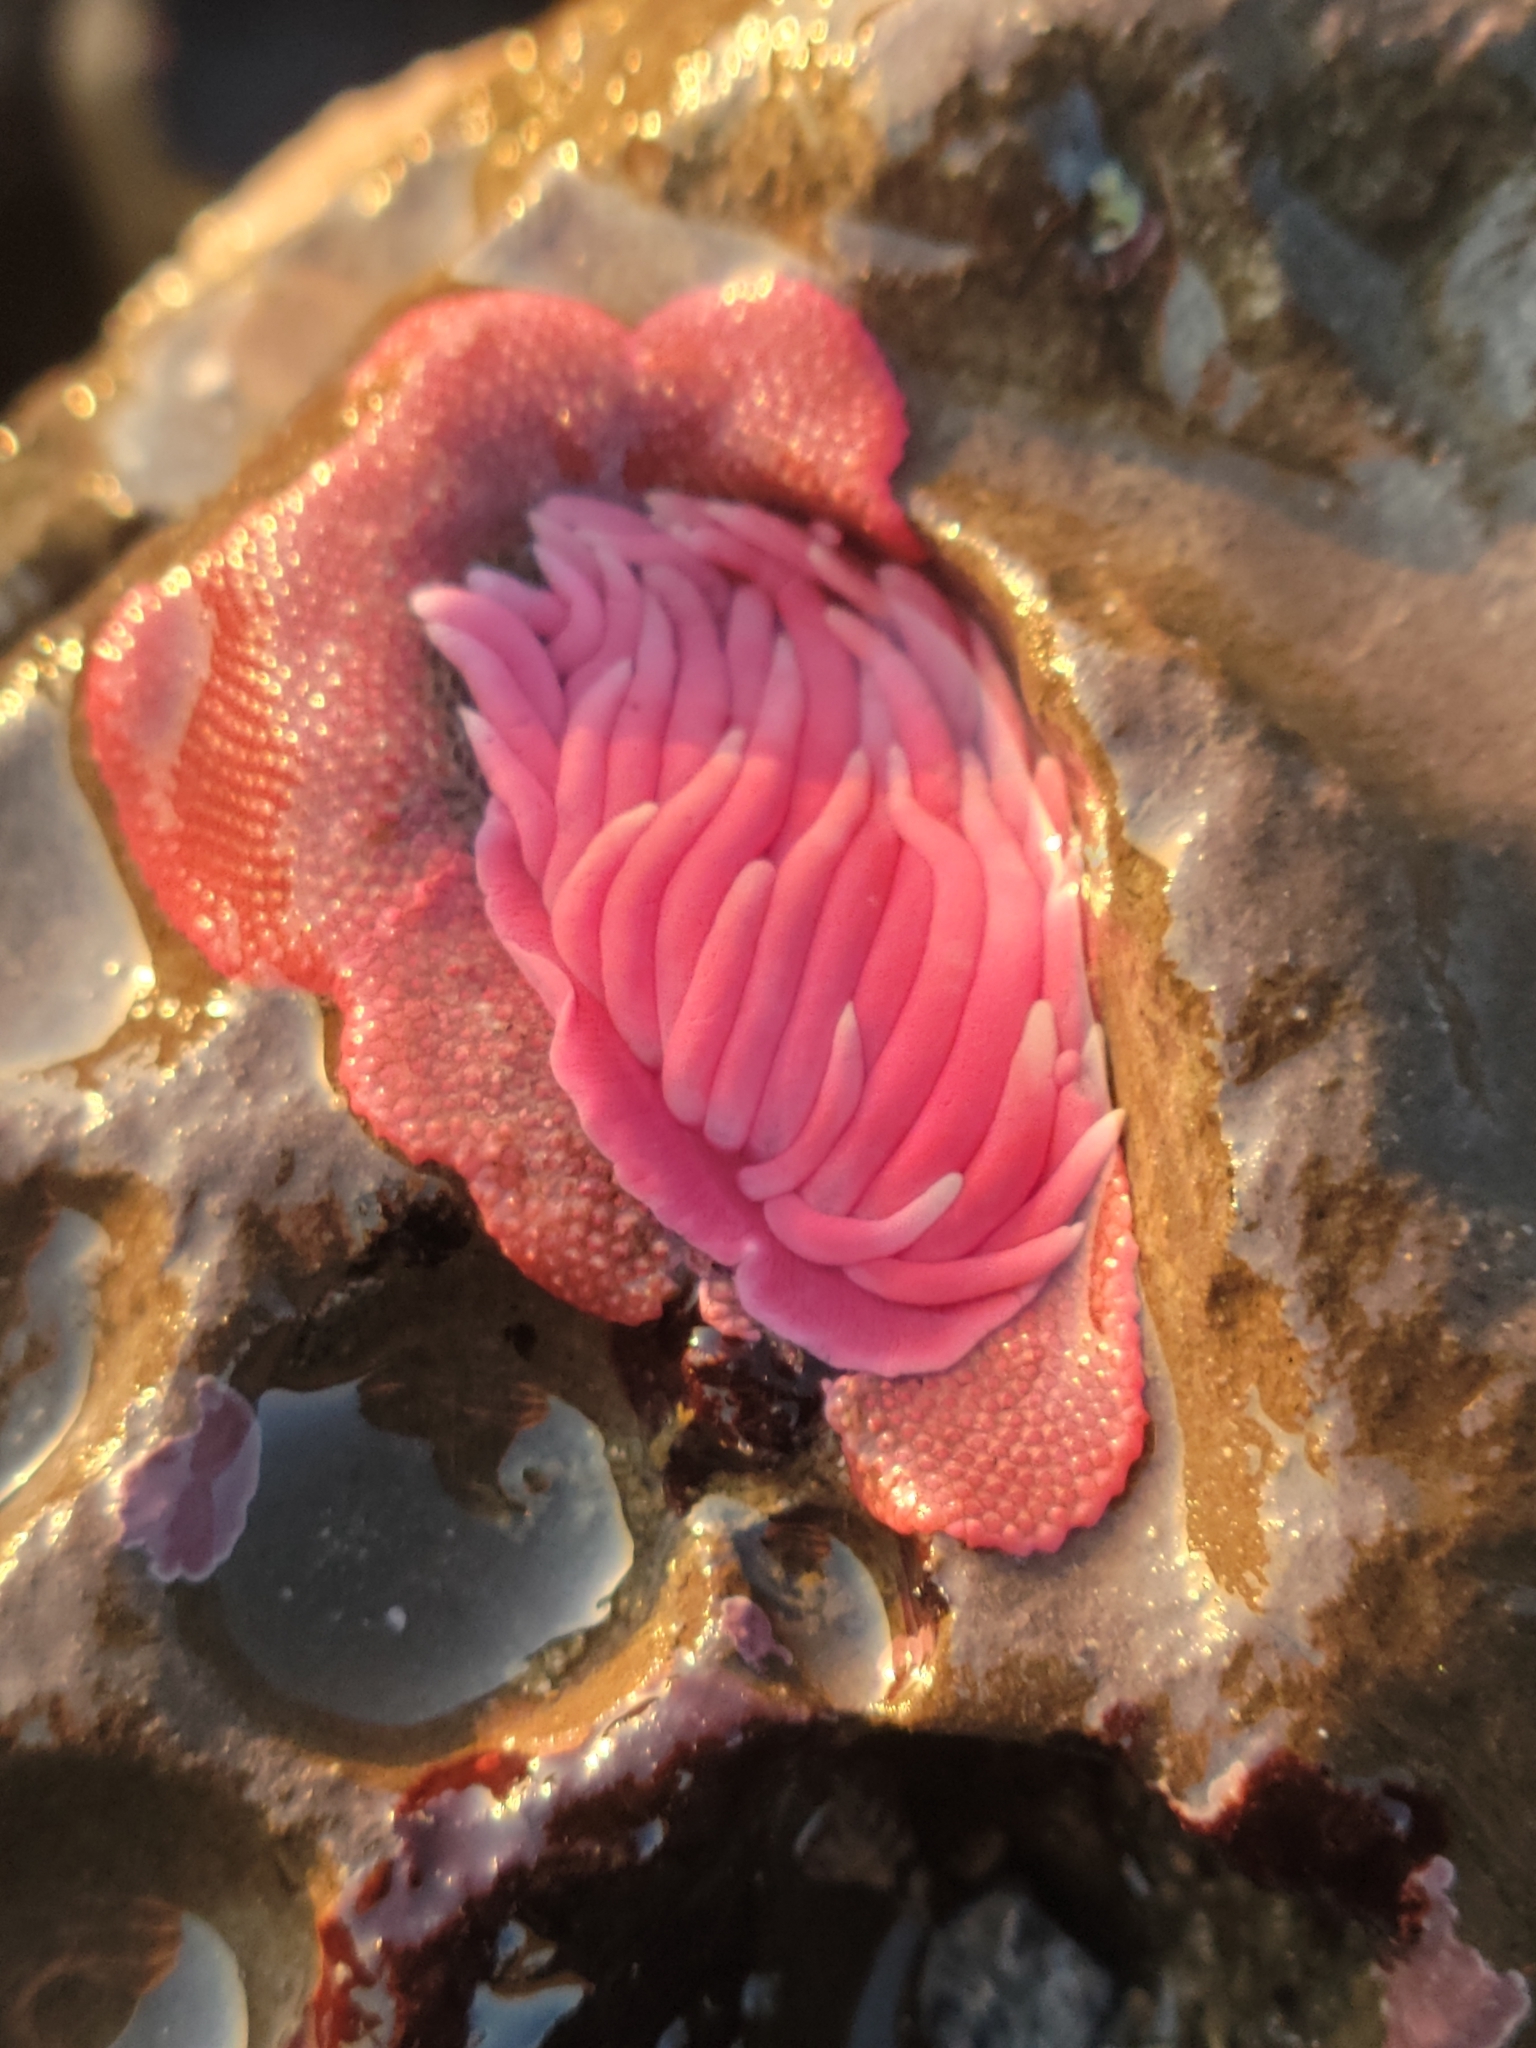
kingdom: Animalia
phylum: Mollusca
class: Gastropoda
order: Nudibranchia
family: Goniodorididae
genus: Okenia
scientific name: Okenia
